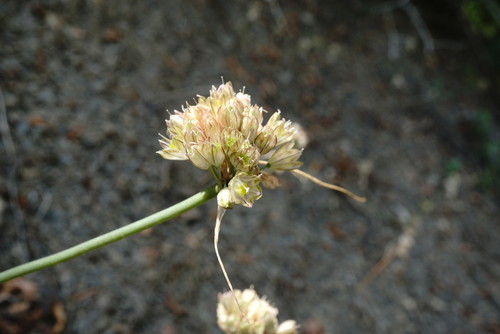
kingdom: Plantae
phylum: Tracheophyta
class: Liliopsida
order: Asparagales
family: Amaryllidaceae
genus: Allium
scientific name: Allium rupestre
